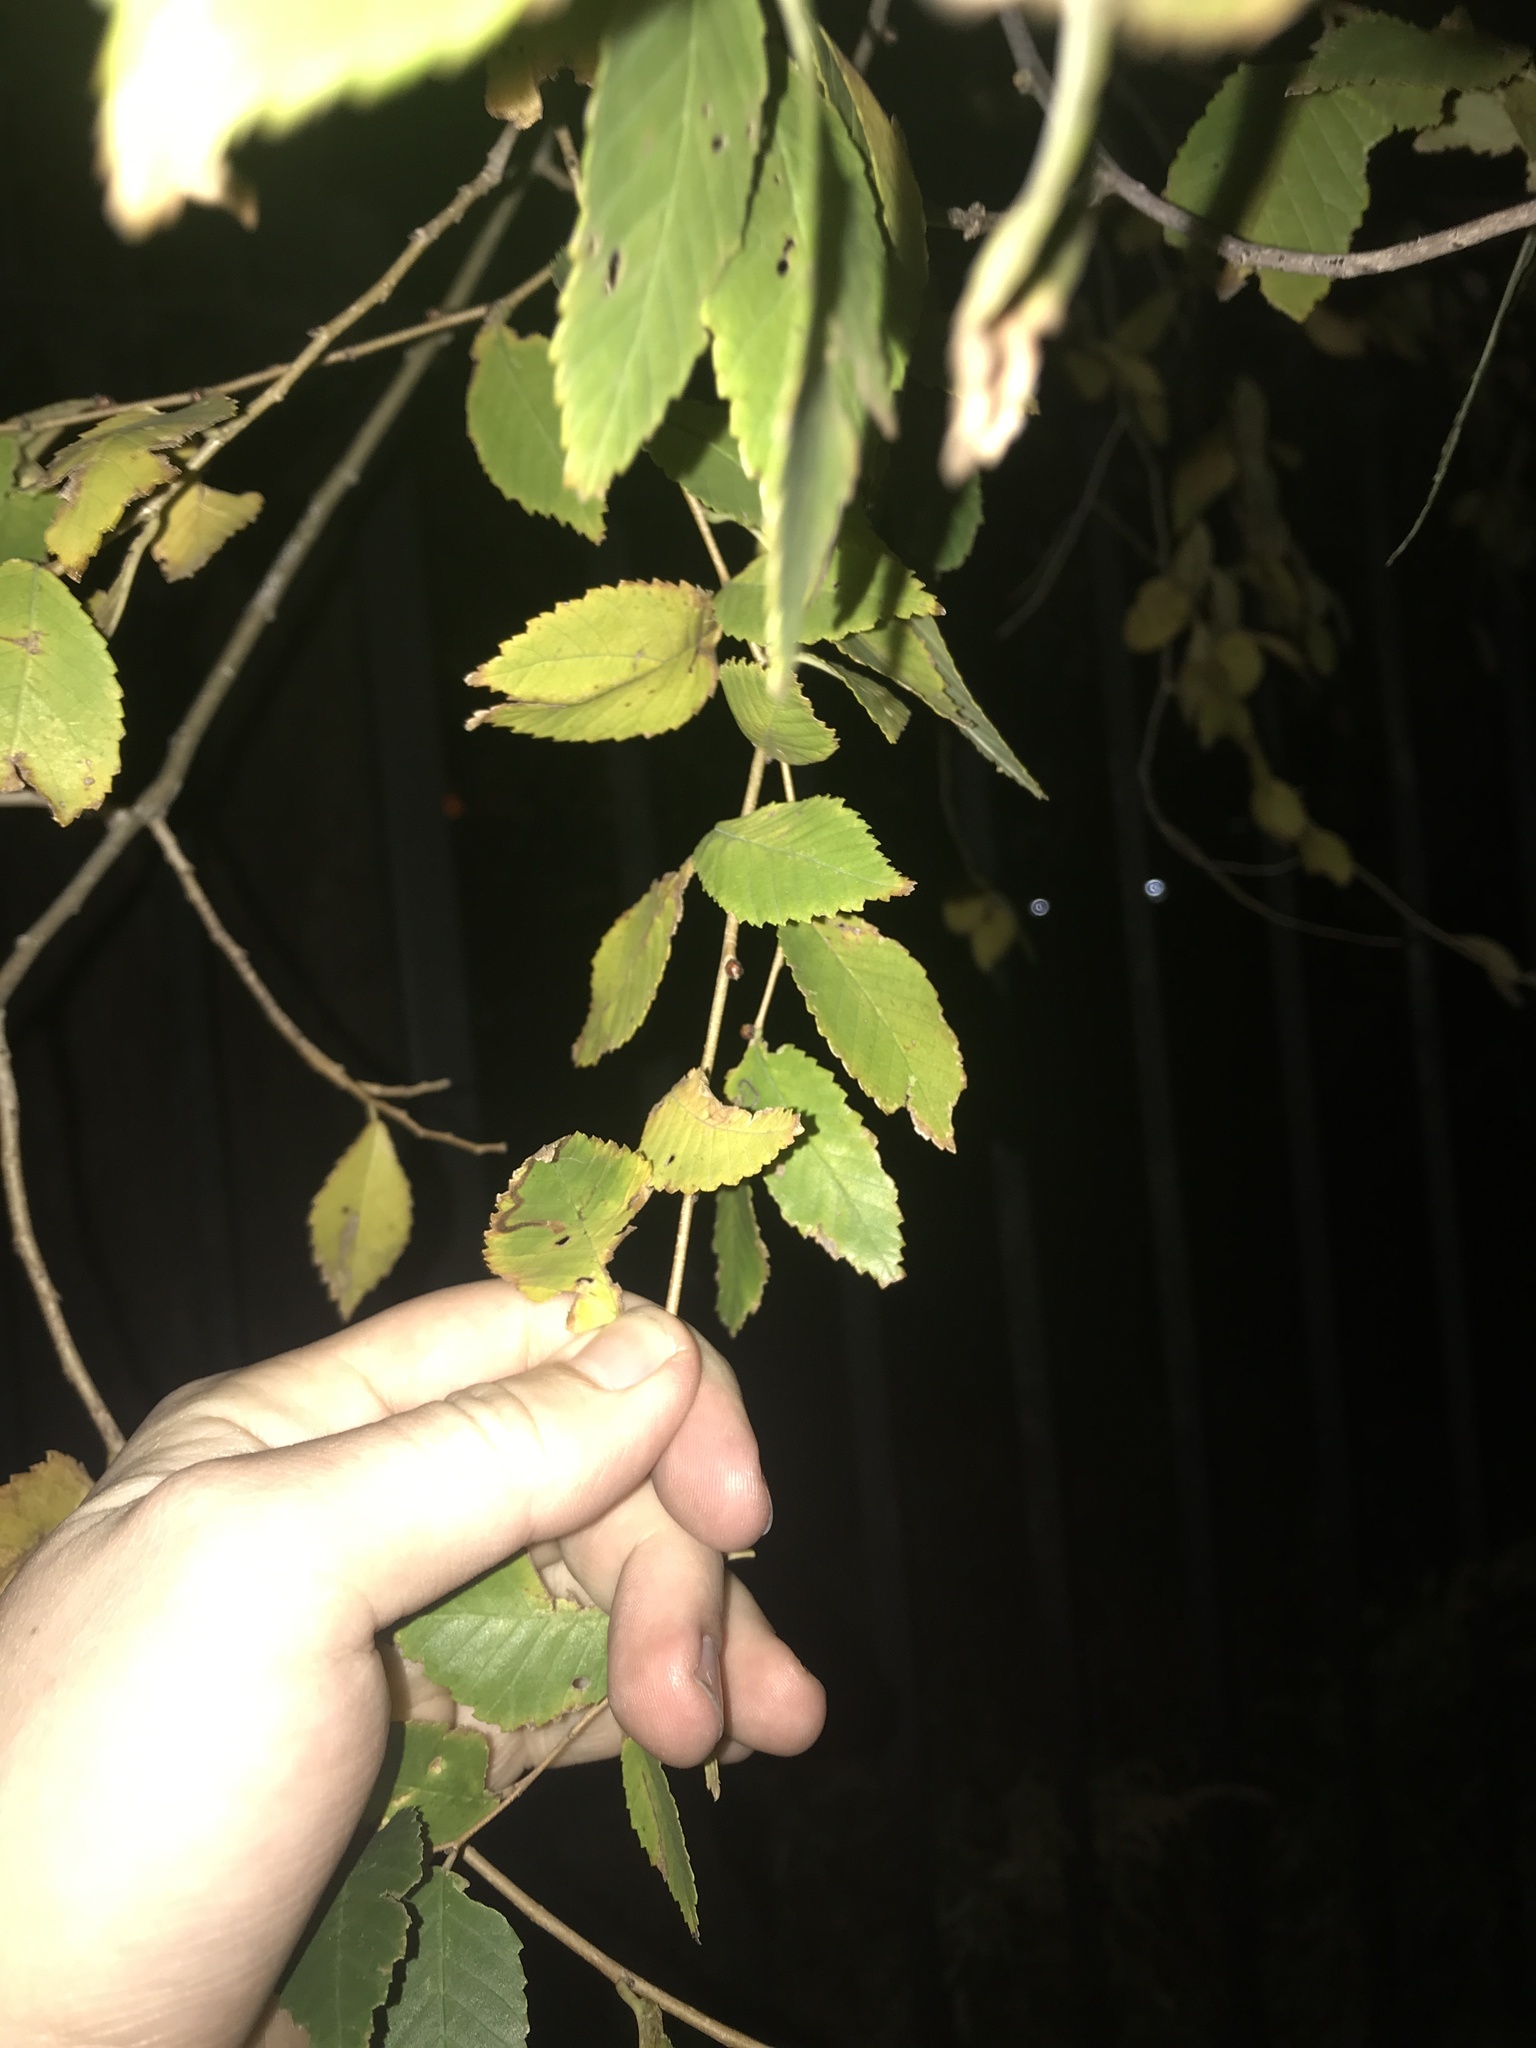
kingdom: Plantae
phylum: Tracheophyta
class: Magnoliopsida
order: Rosales
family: Ulmaceae
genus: Ulmus
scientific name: Ulmus alata
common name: Winged elm
